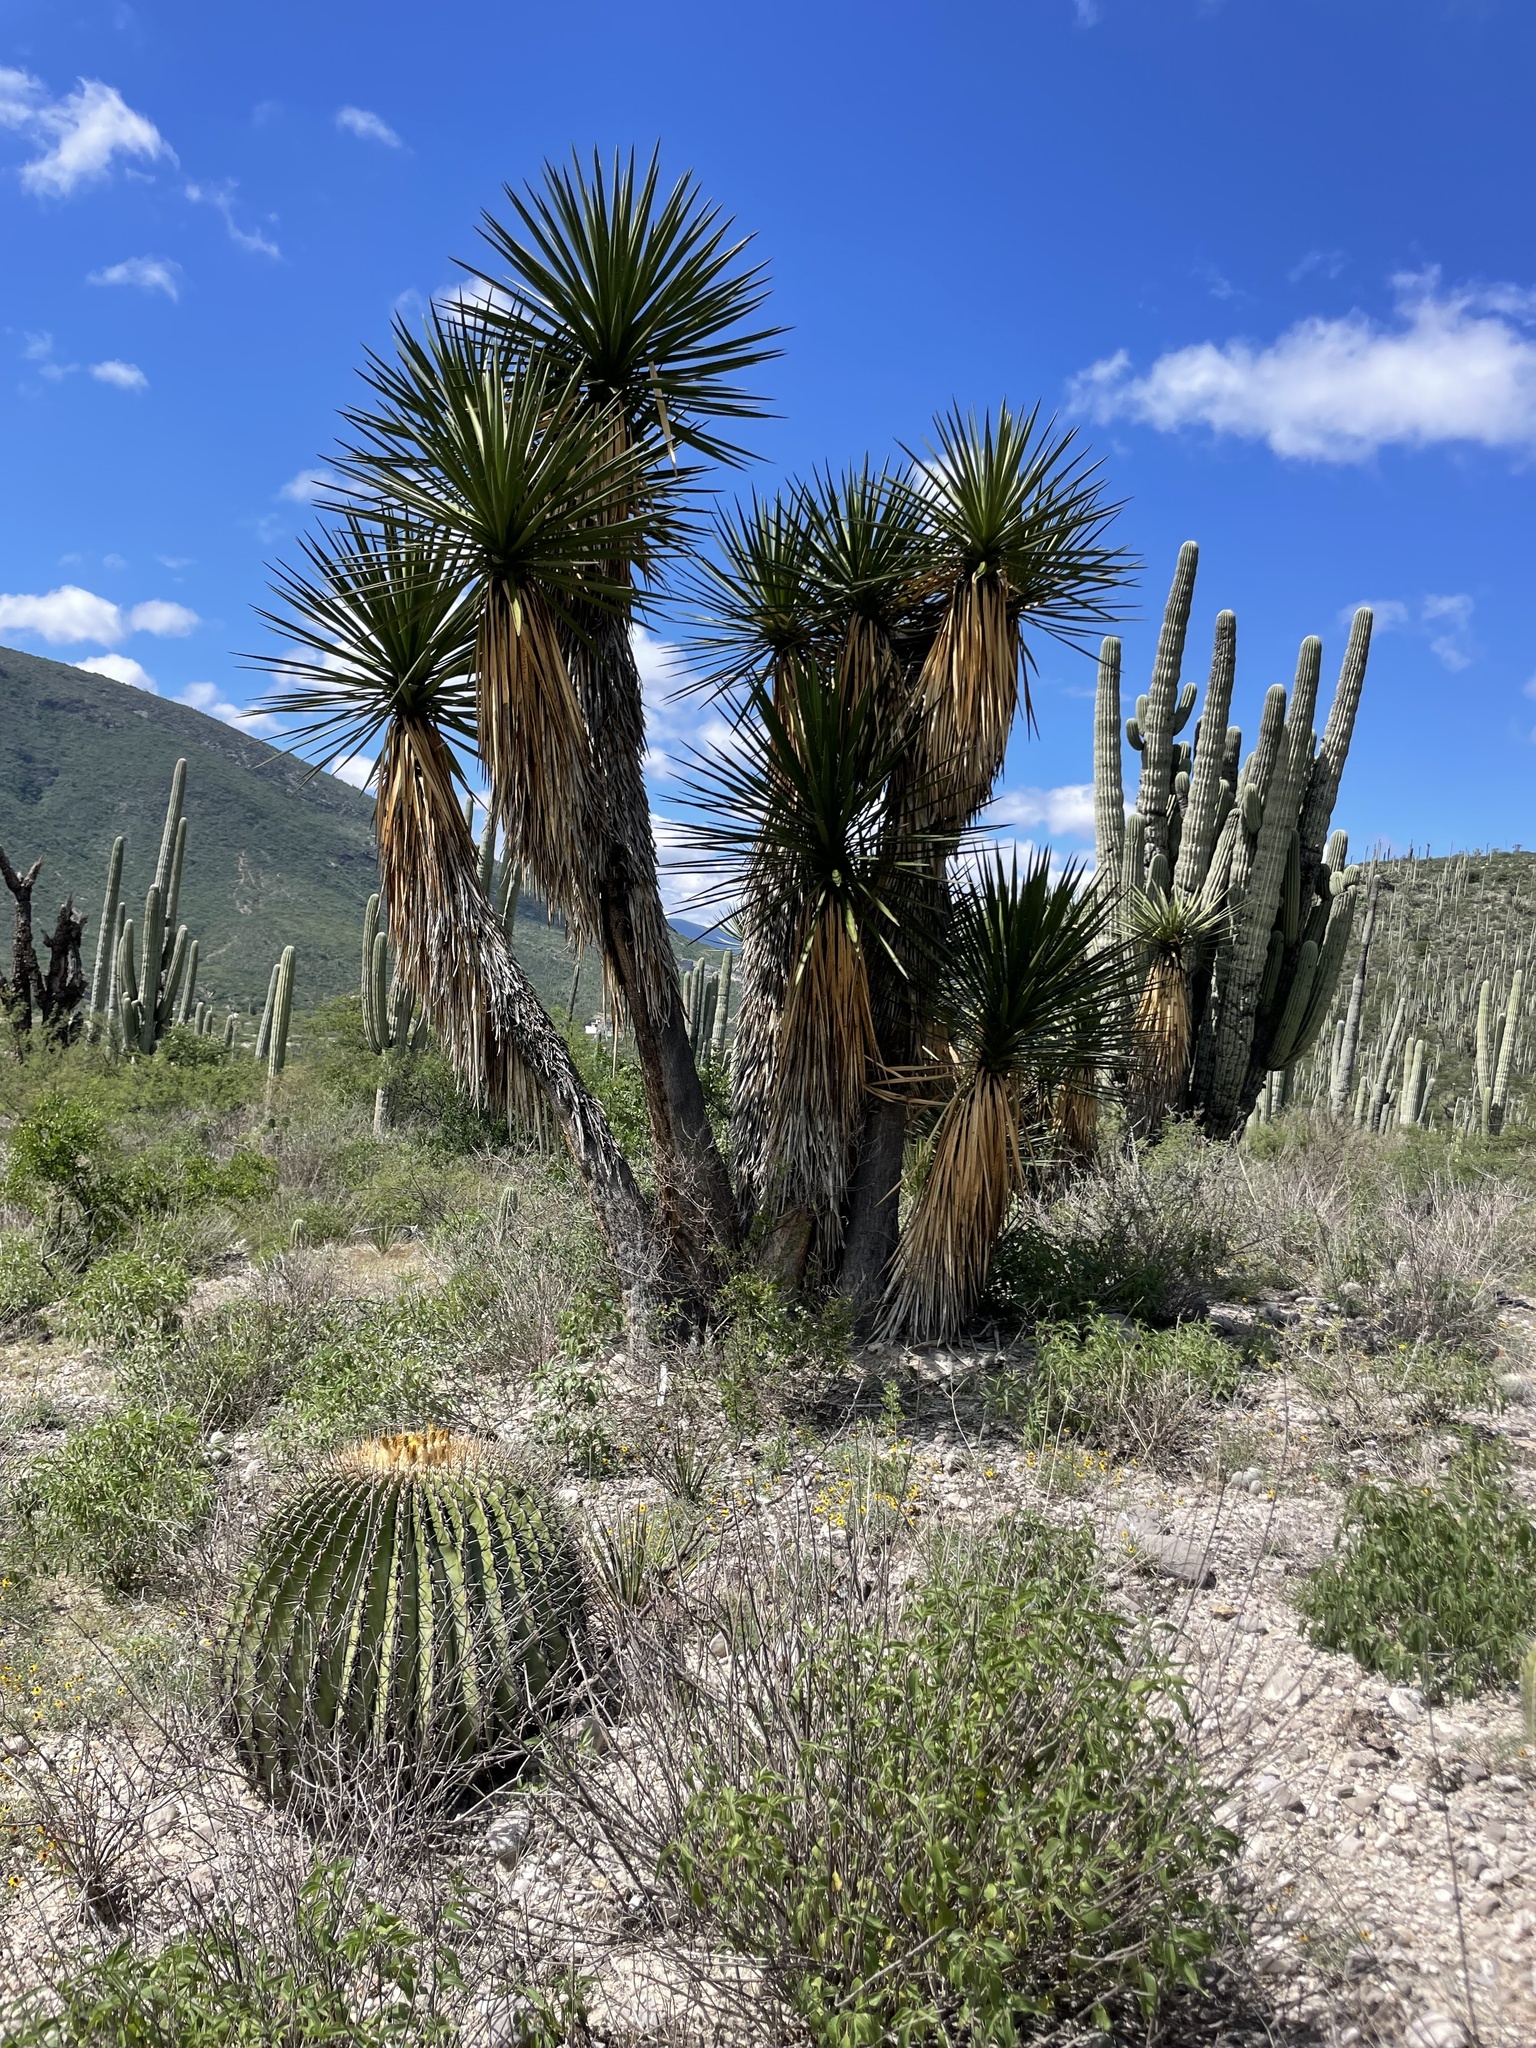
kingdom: Plantae
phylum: Tracheophyta
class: Liliopsida
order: Asparagales
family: Asparagaceae
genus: Yucca
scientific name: Yucca periculosa
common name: Izote yucca
